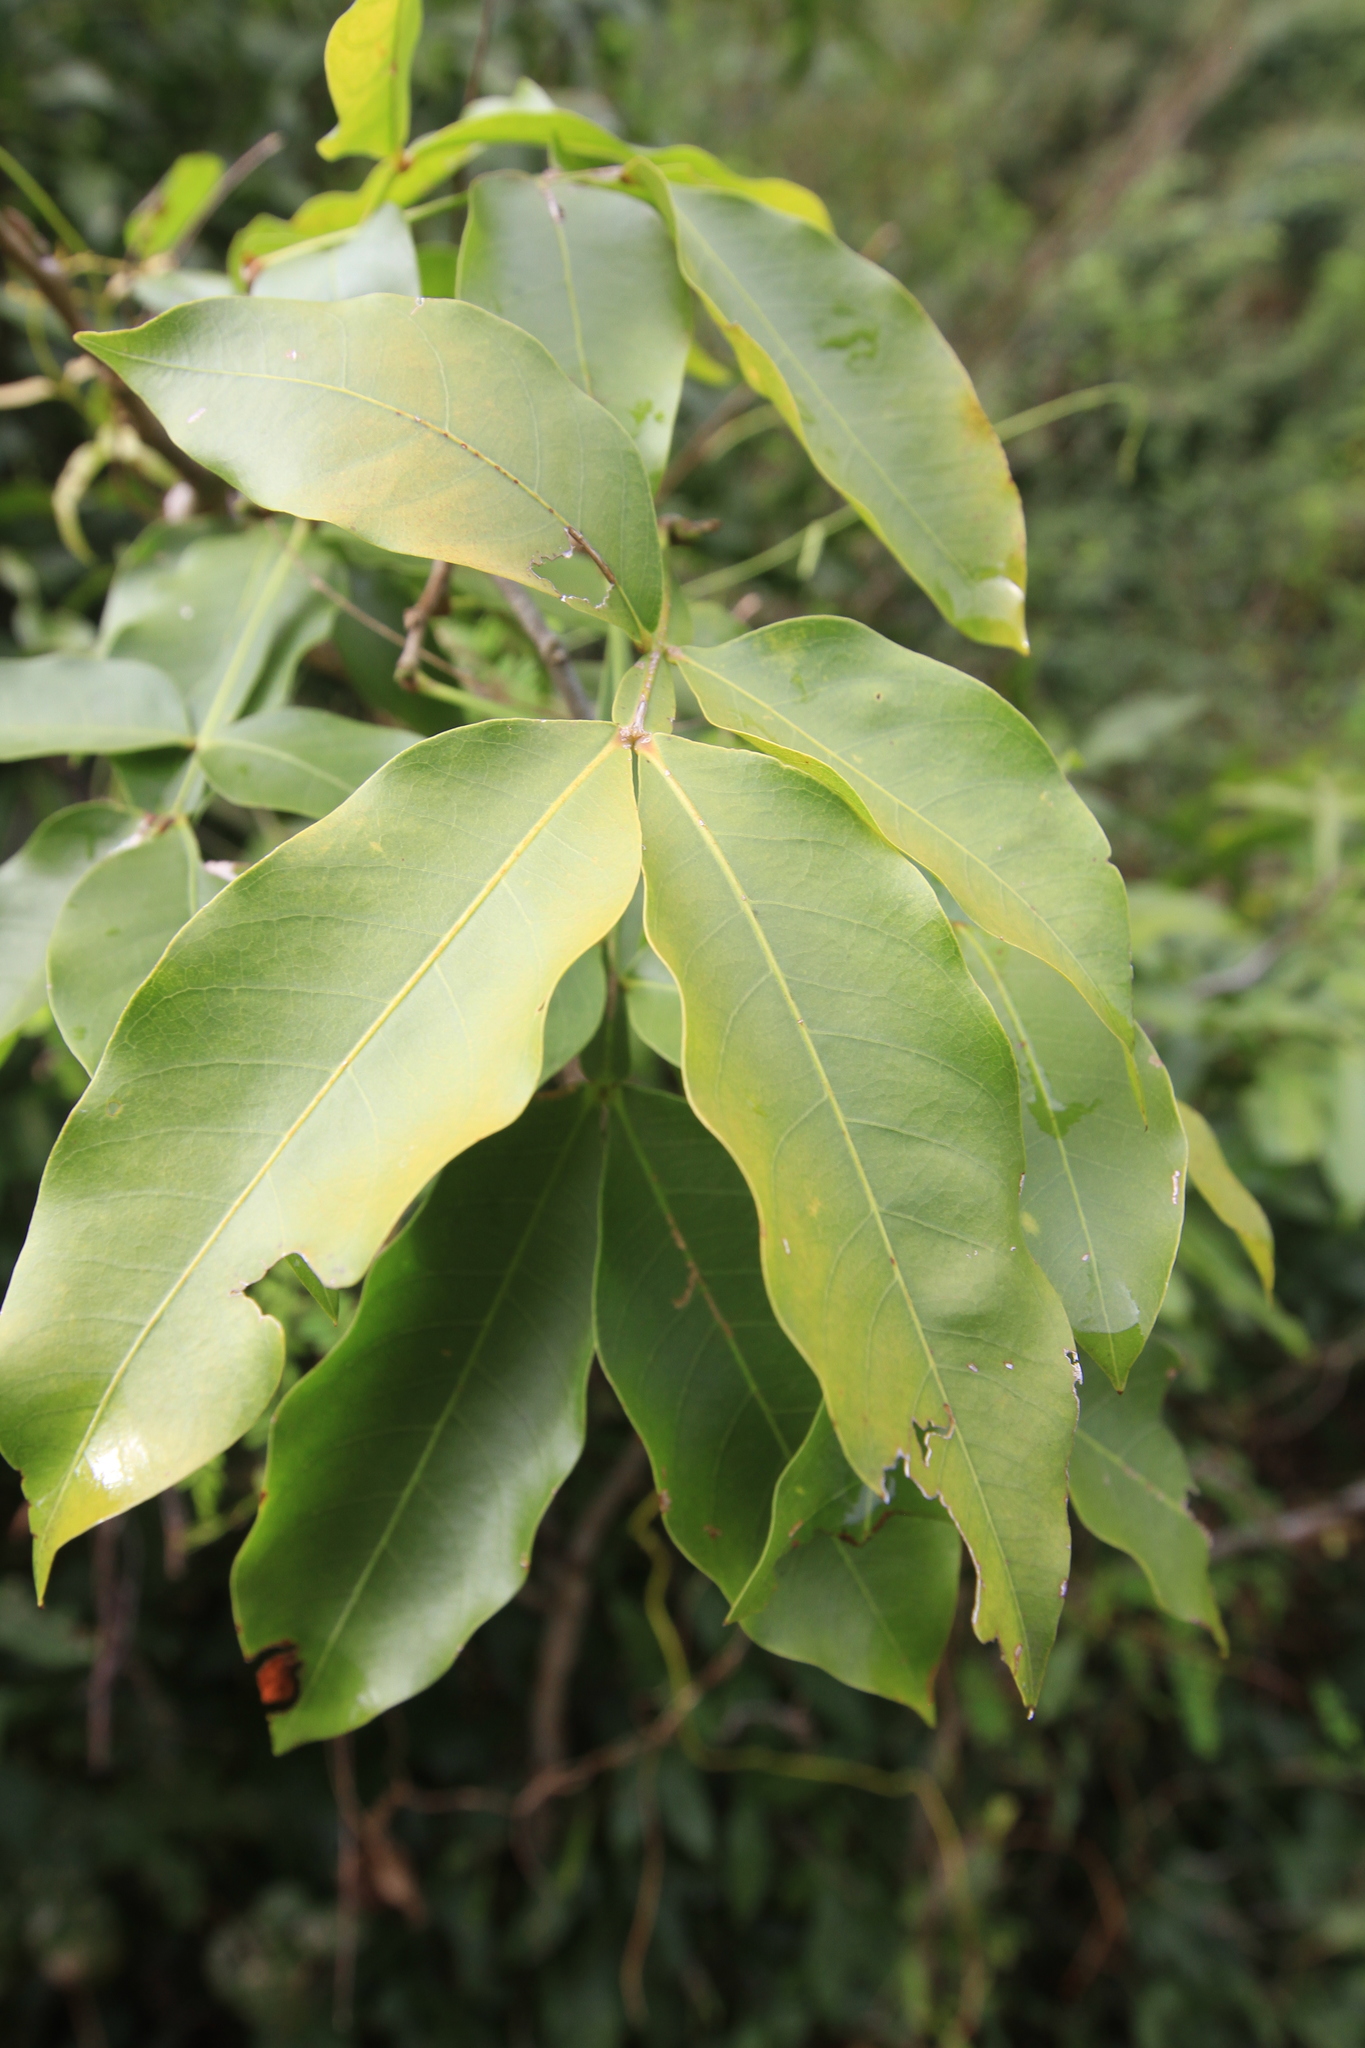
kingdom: Plantae
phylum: Tracheophyta
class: Magnoliopsida
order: Sapindales
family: Sapindaceae
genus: Melicoccus
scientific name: Melicoccus bijugatus
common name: Spanish lime
